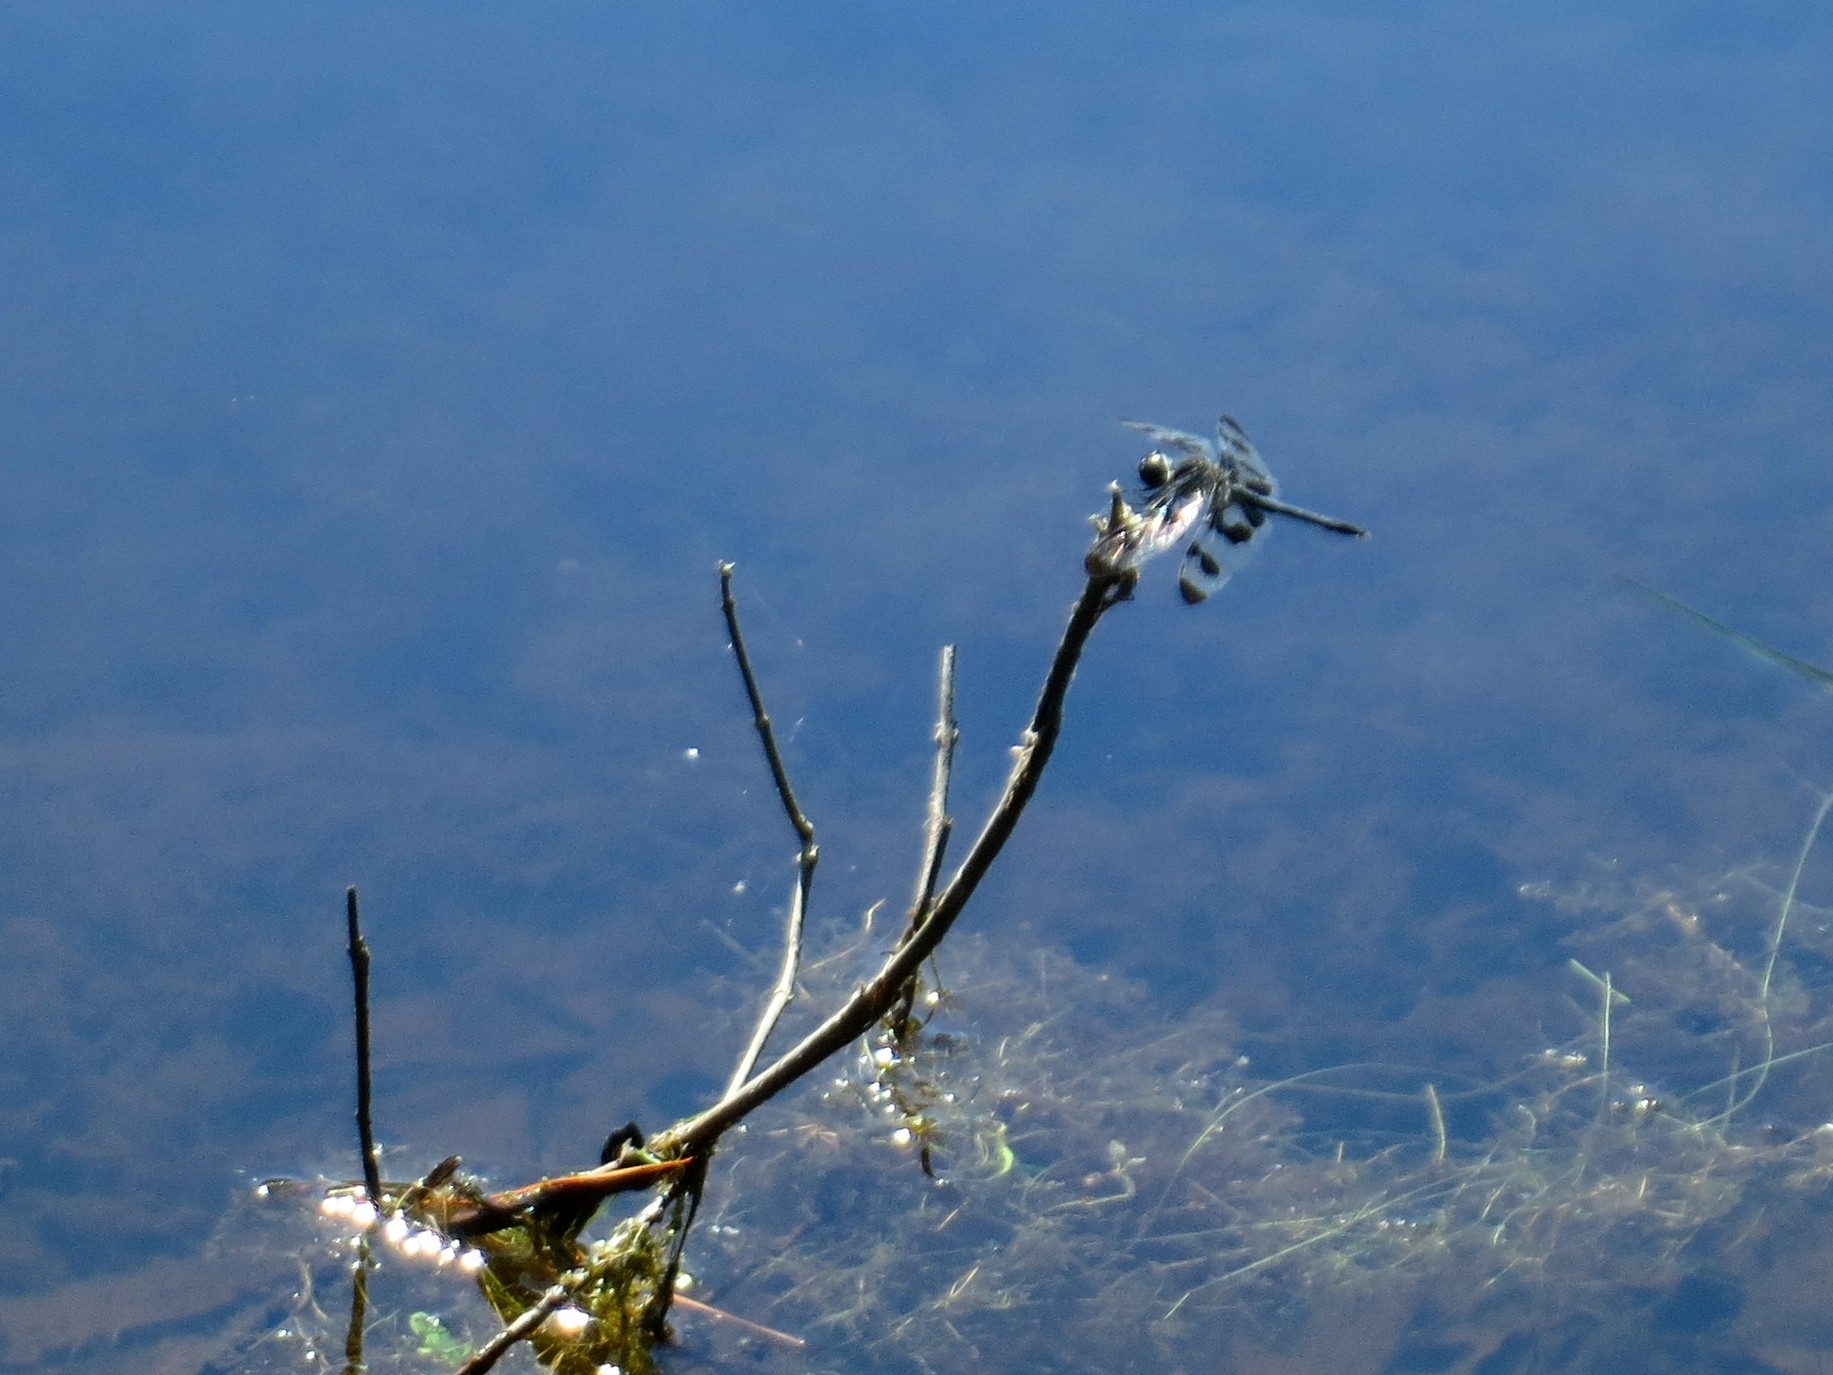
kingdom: Animalia
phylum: Arthropoda
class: Insecta
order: Odonata
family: Libellulidae
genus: Celithemis
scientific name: Celithemis fasciata
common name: Banded pennant
